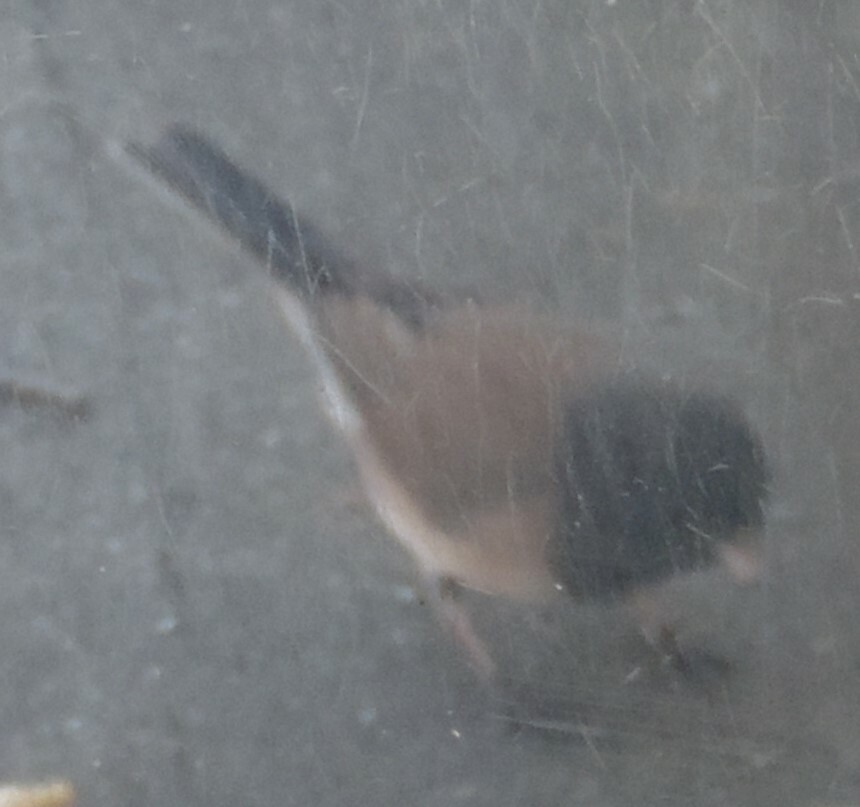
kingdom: Animalia
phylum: Chordata
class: Aves
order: Passeriformes
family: Passerellidae
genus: Junco
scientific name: Junco hyemalis
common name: Dark-eyed junco
